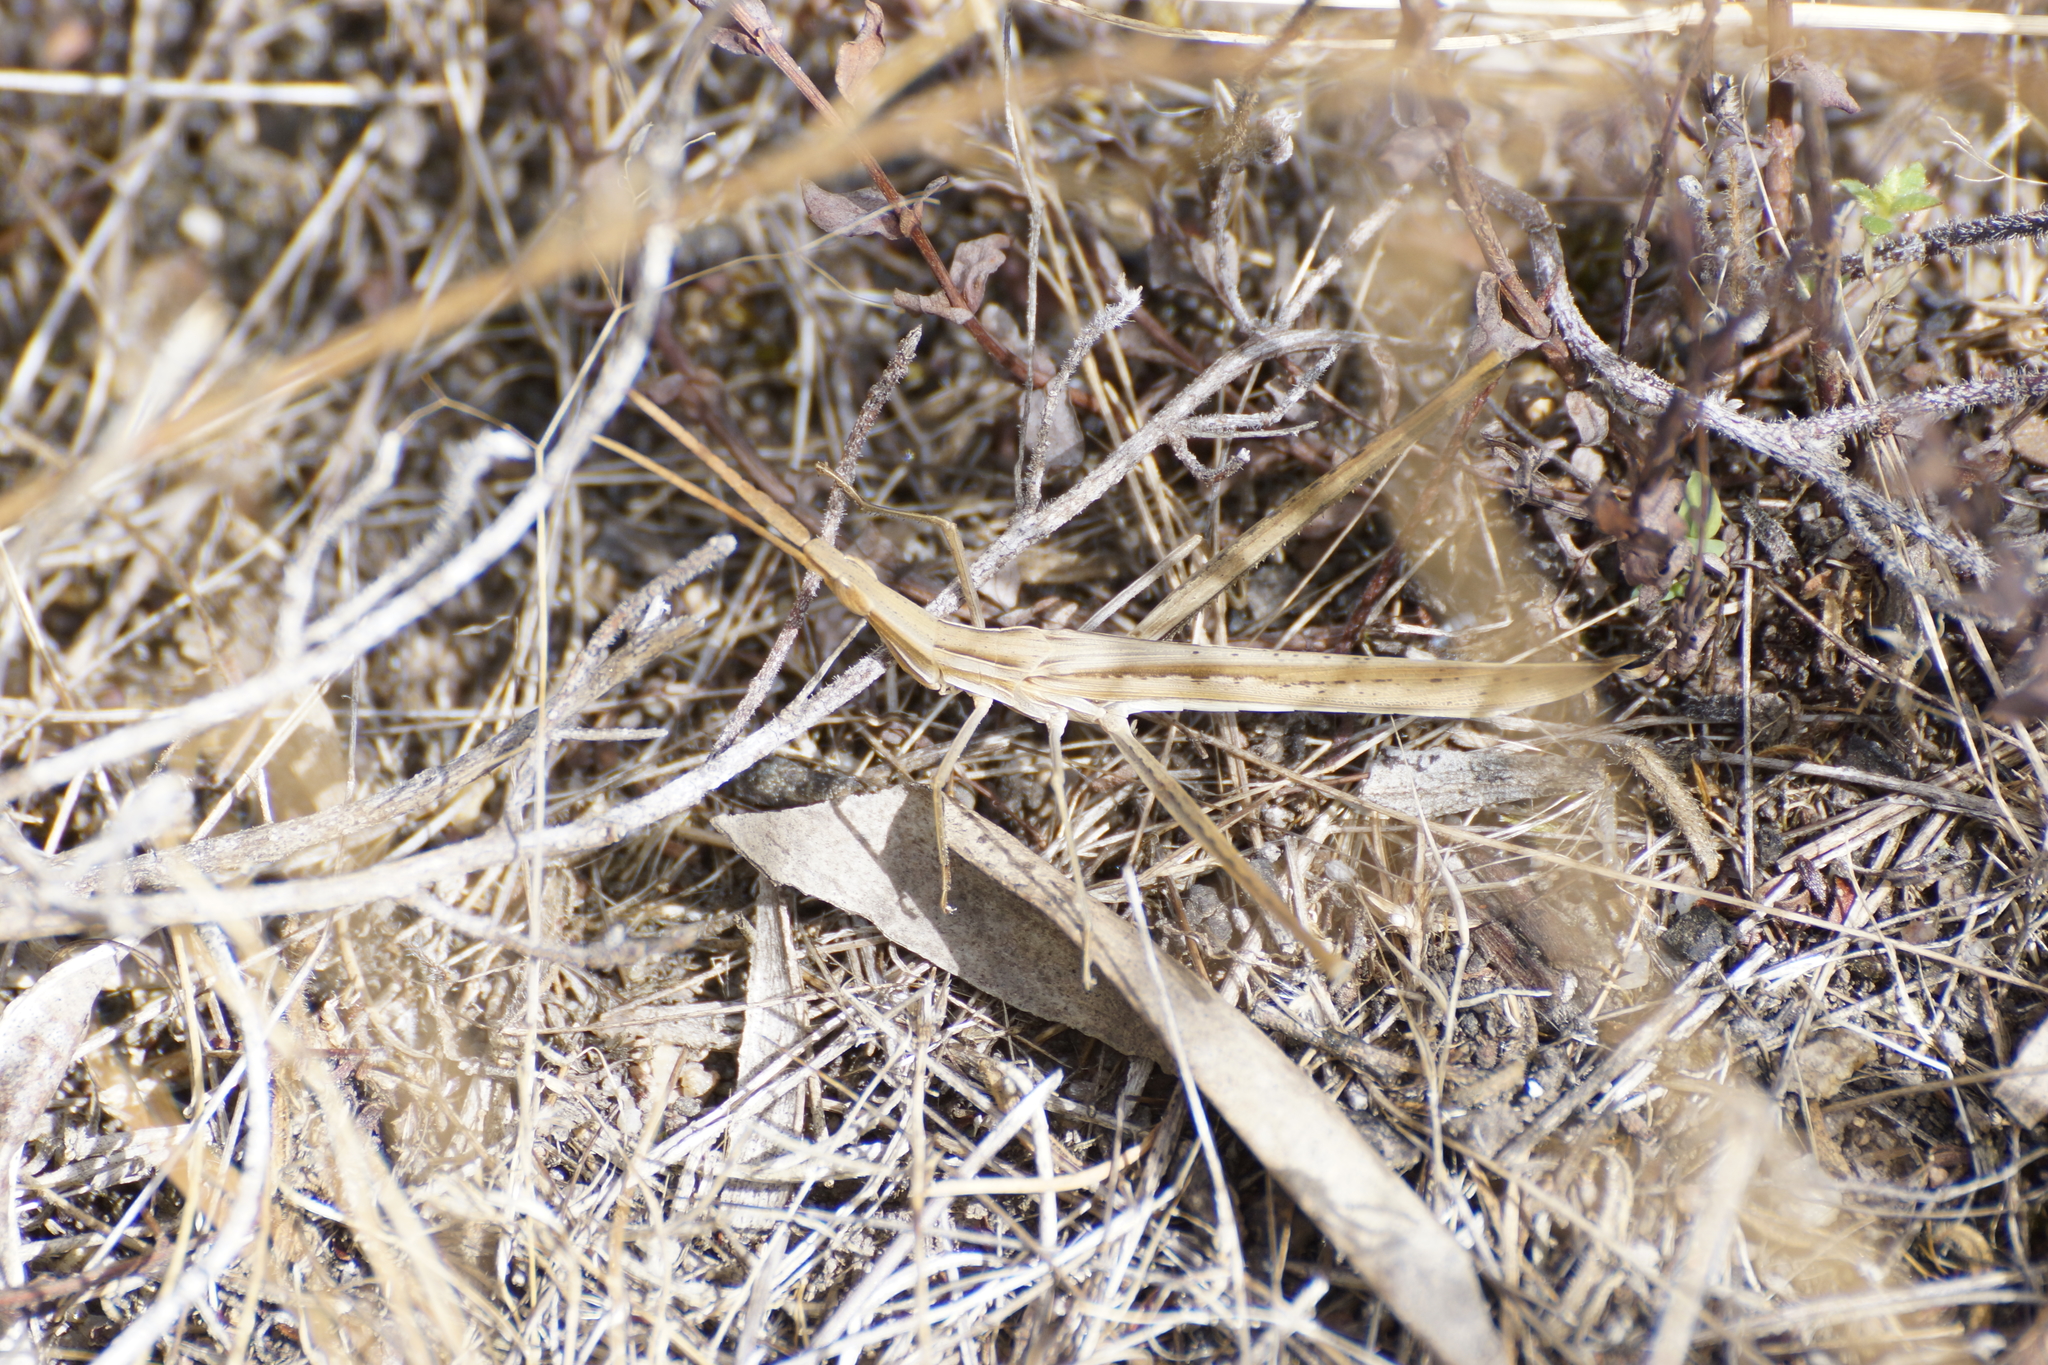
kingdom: Animalia
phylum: Arthropoda
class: Insecta
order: Orthoptera
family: Acrididae
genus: Acrida
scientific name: Acrida conica
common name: Giant green slantface
